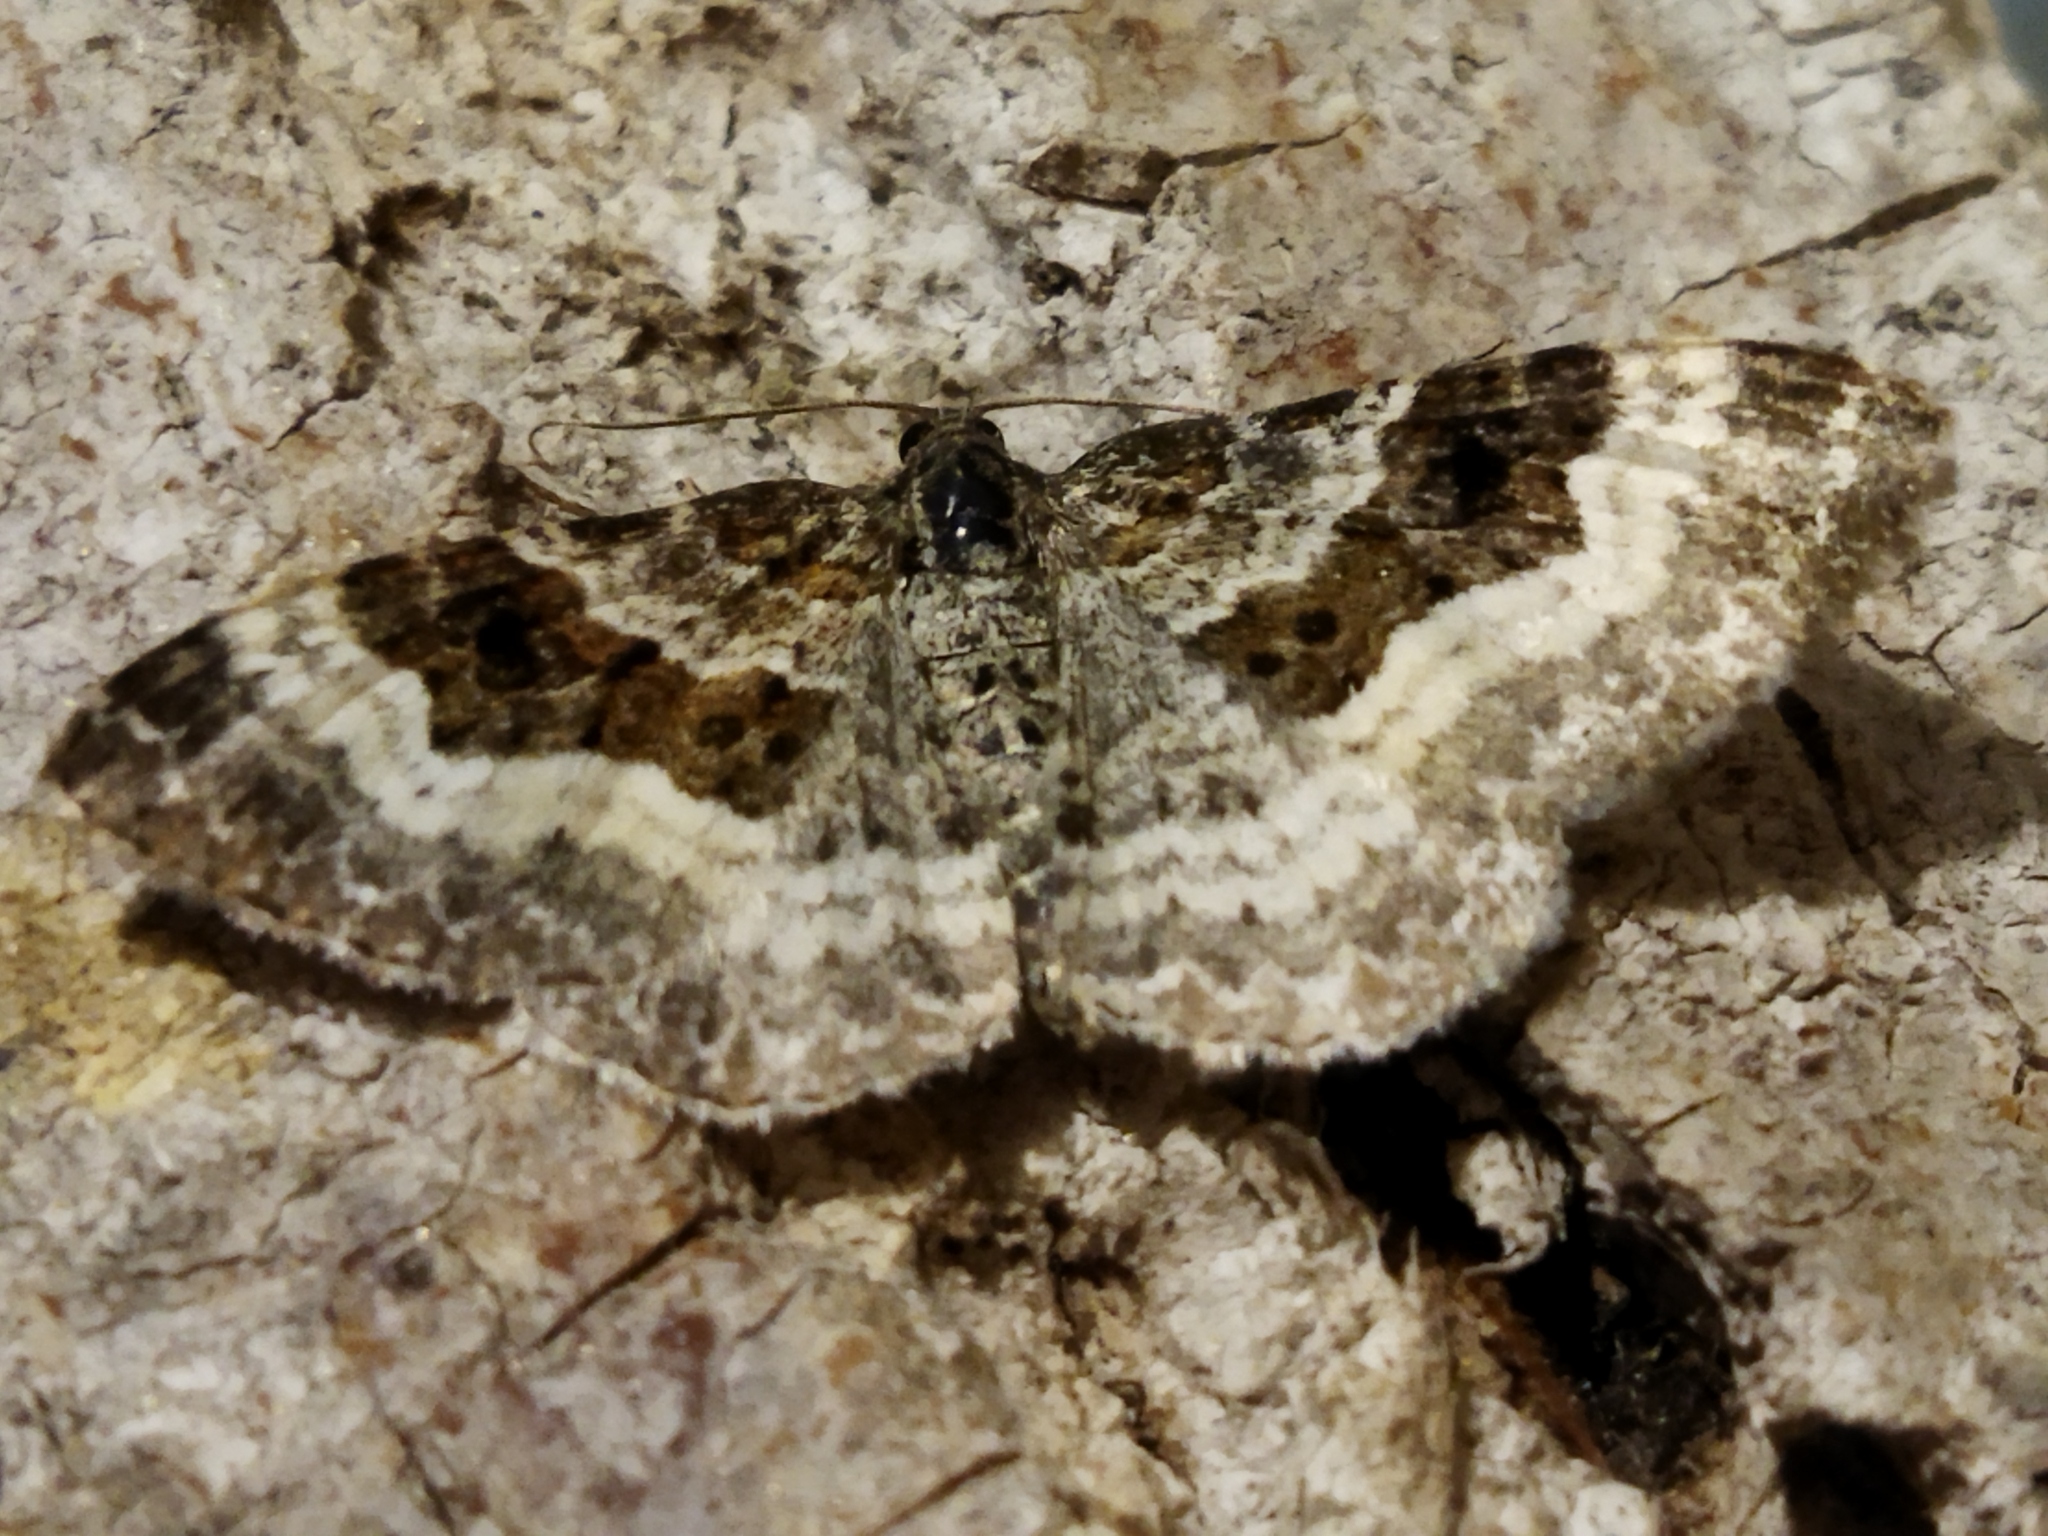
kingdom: Animalia
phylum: Arthropoda
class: Insecta
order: Lepidoptera
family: Geometridae
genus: Epirrhoe
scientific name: Epirrhoe alternata
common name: Common carpet
